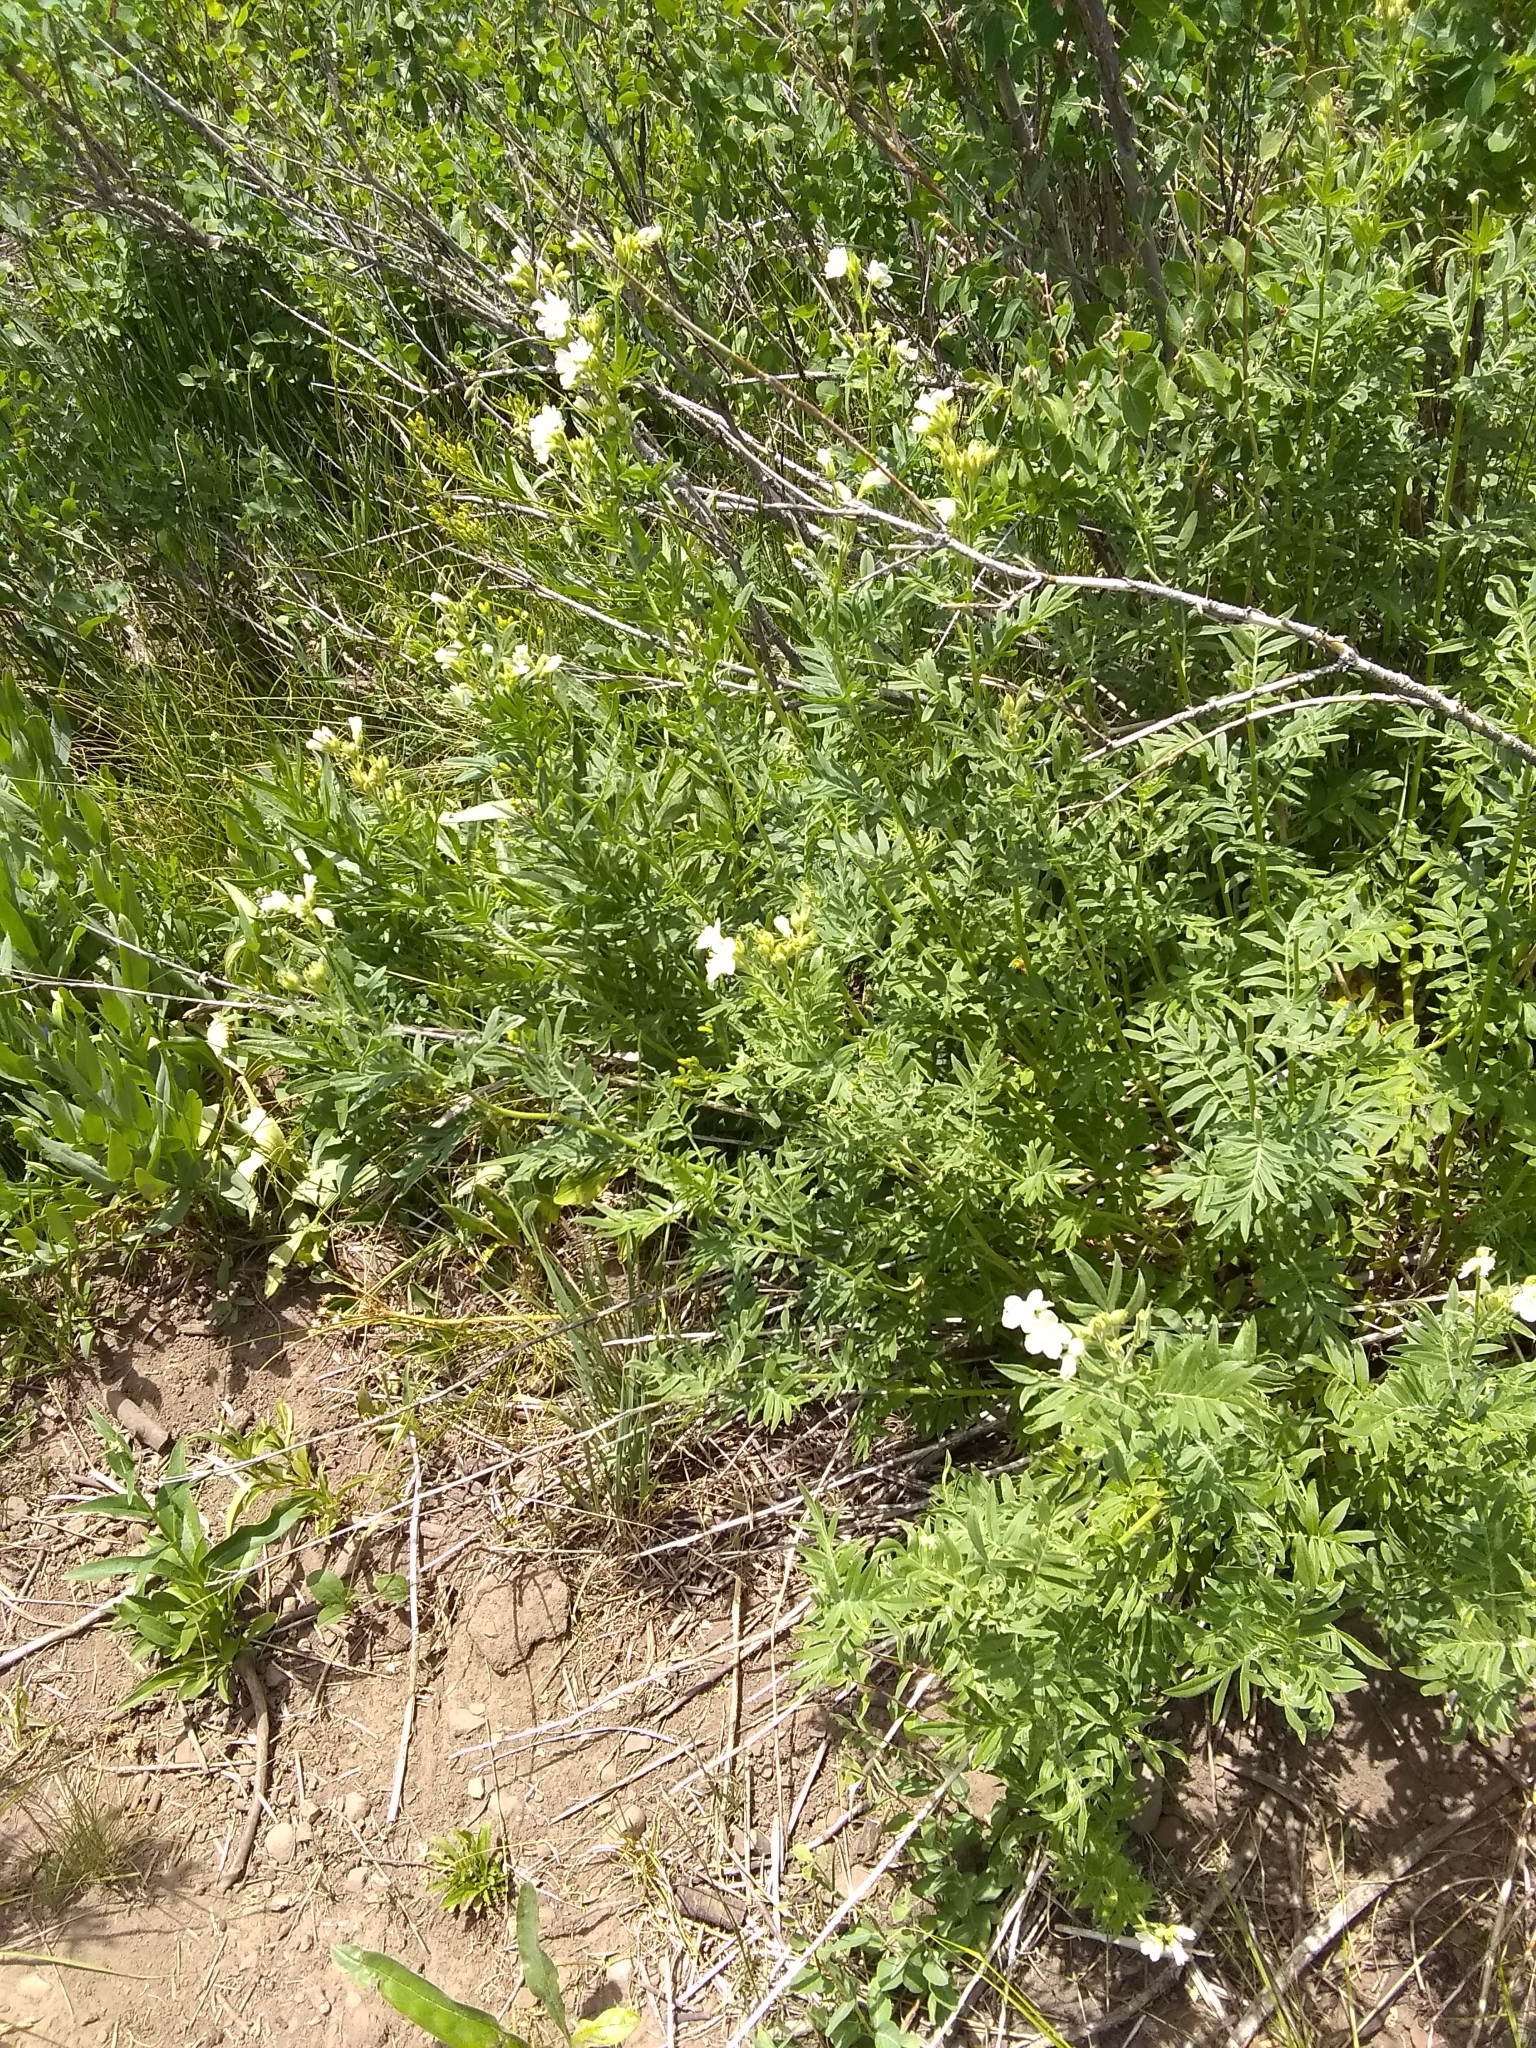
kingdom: Plantae
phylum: Tracheophyta
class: Magnoliopsida
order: Ericales
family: Polemoniaceae
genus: Polemonium
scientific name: Polemonium foliosissimum
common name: Leafy jacob's-ladder
